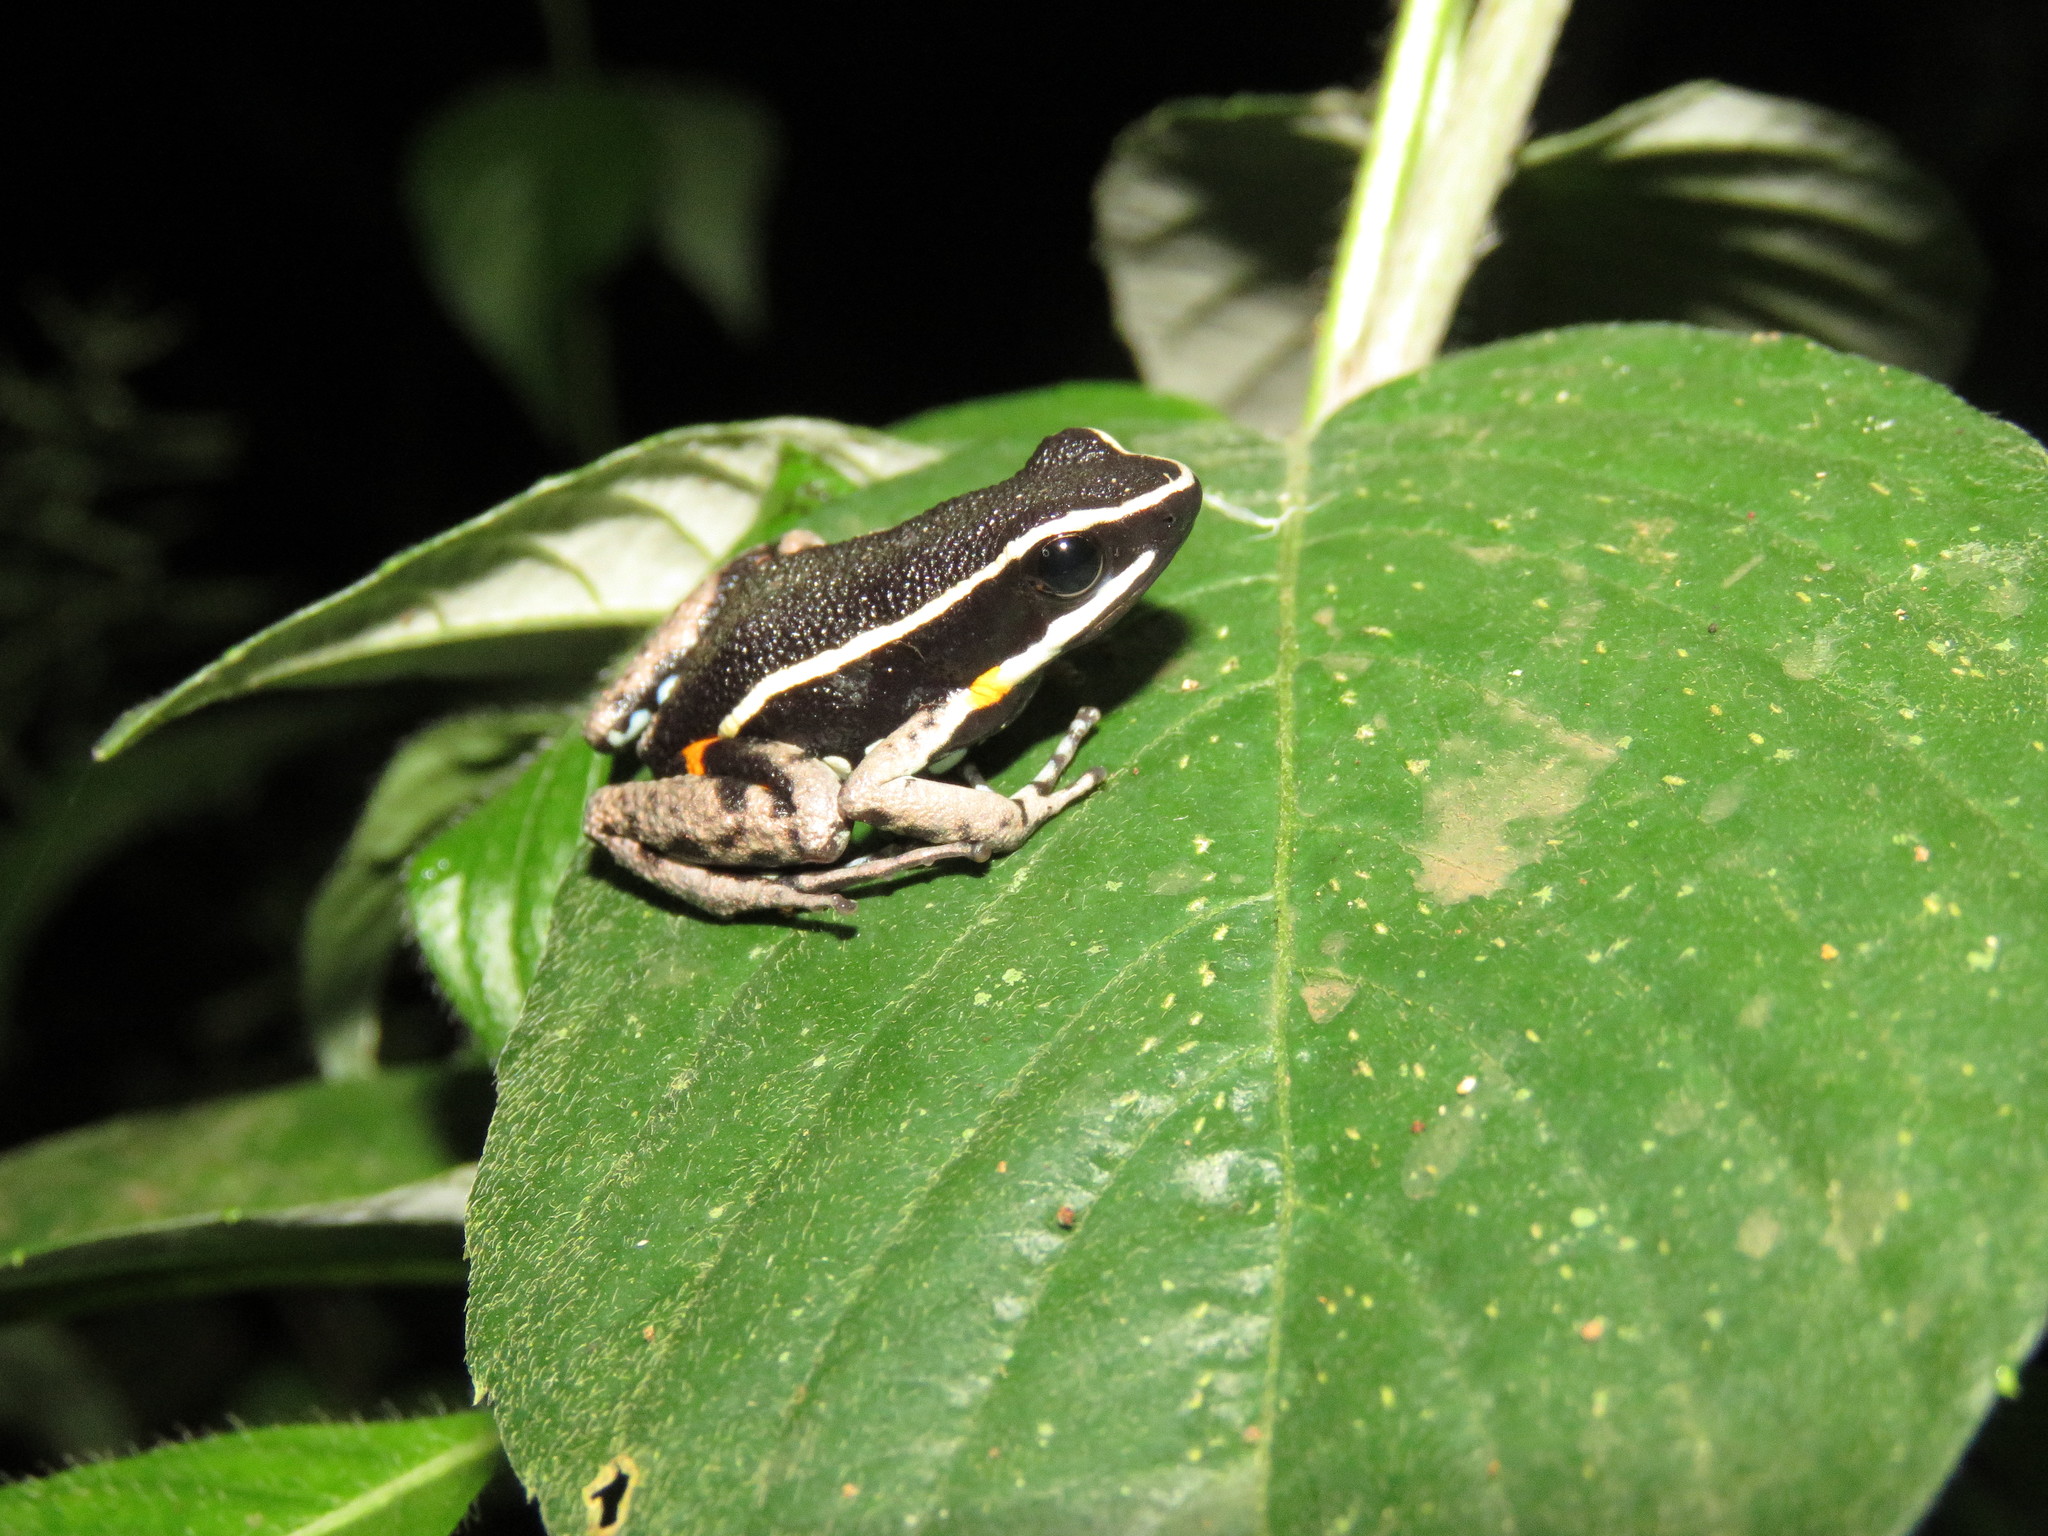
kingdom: Animalia
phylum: Chordata
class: Amphibia
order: Anura
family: Dendrobatidae
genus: Ameerega
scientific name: Ameerega picta
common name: Spot-legged poison frog
